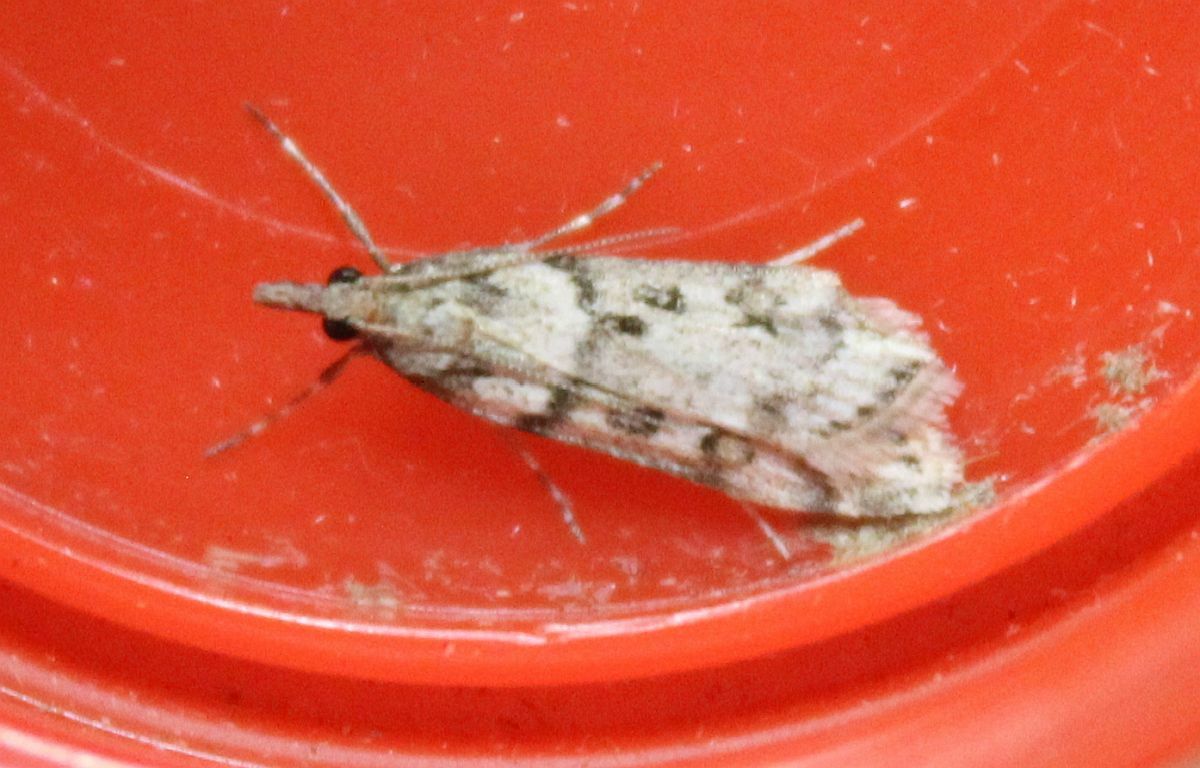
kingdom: Animalia
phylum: Arthropoda
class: Insecta
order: Lepidoptera
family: Crambidae
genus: Eudonia
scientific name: Eudonia angustea
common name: Narrow-winged grey
